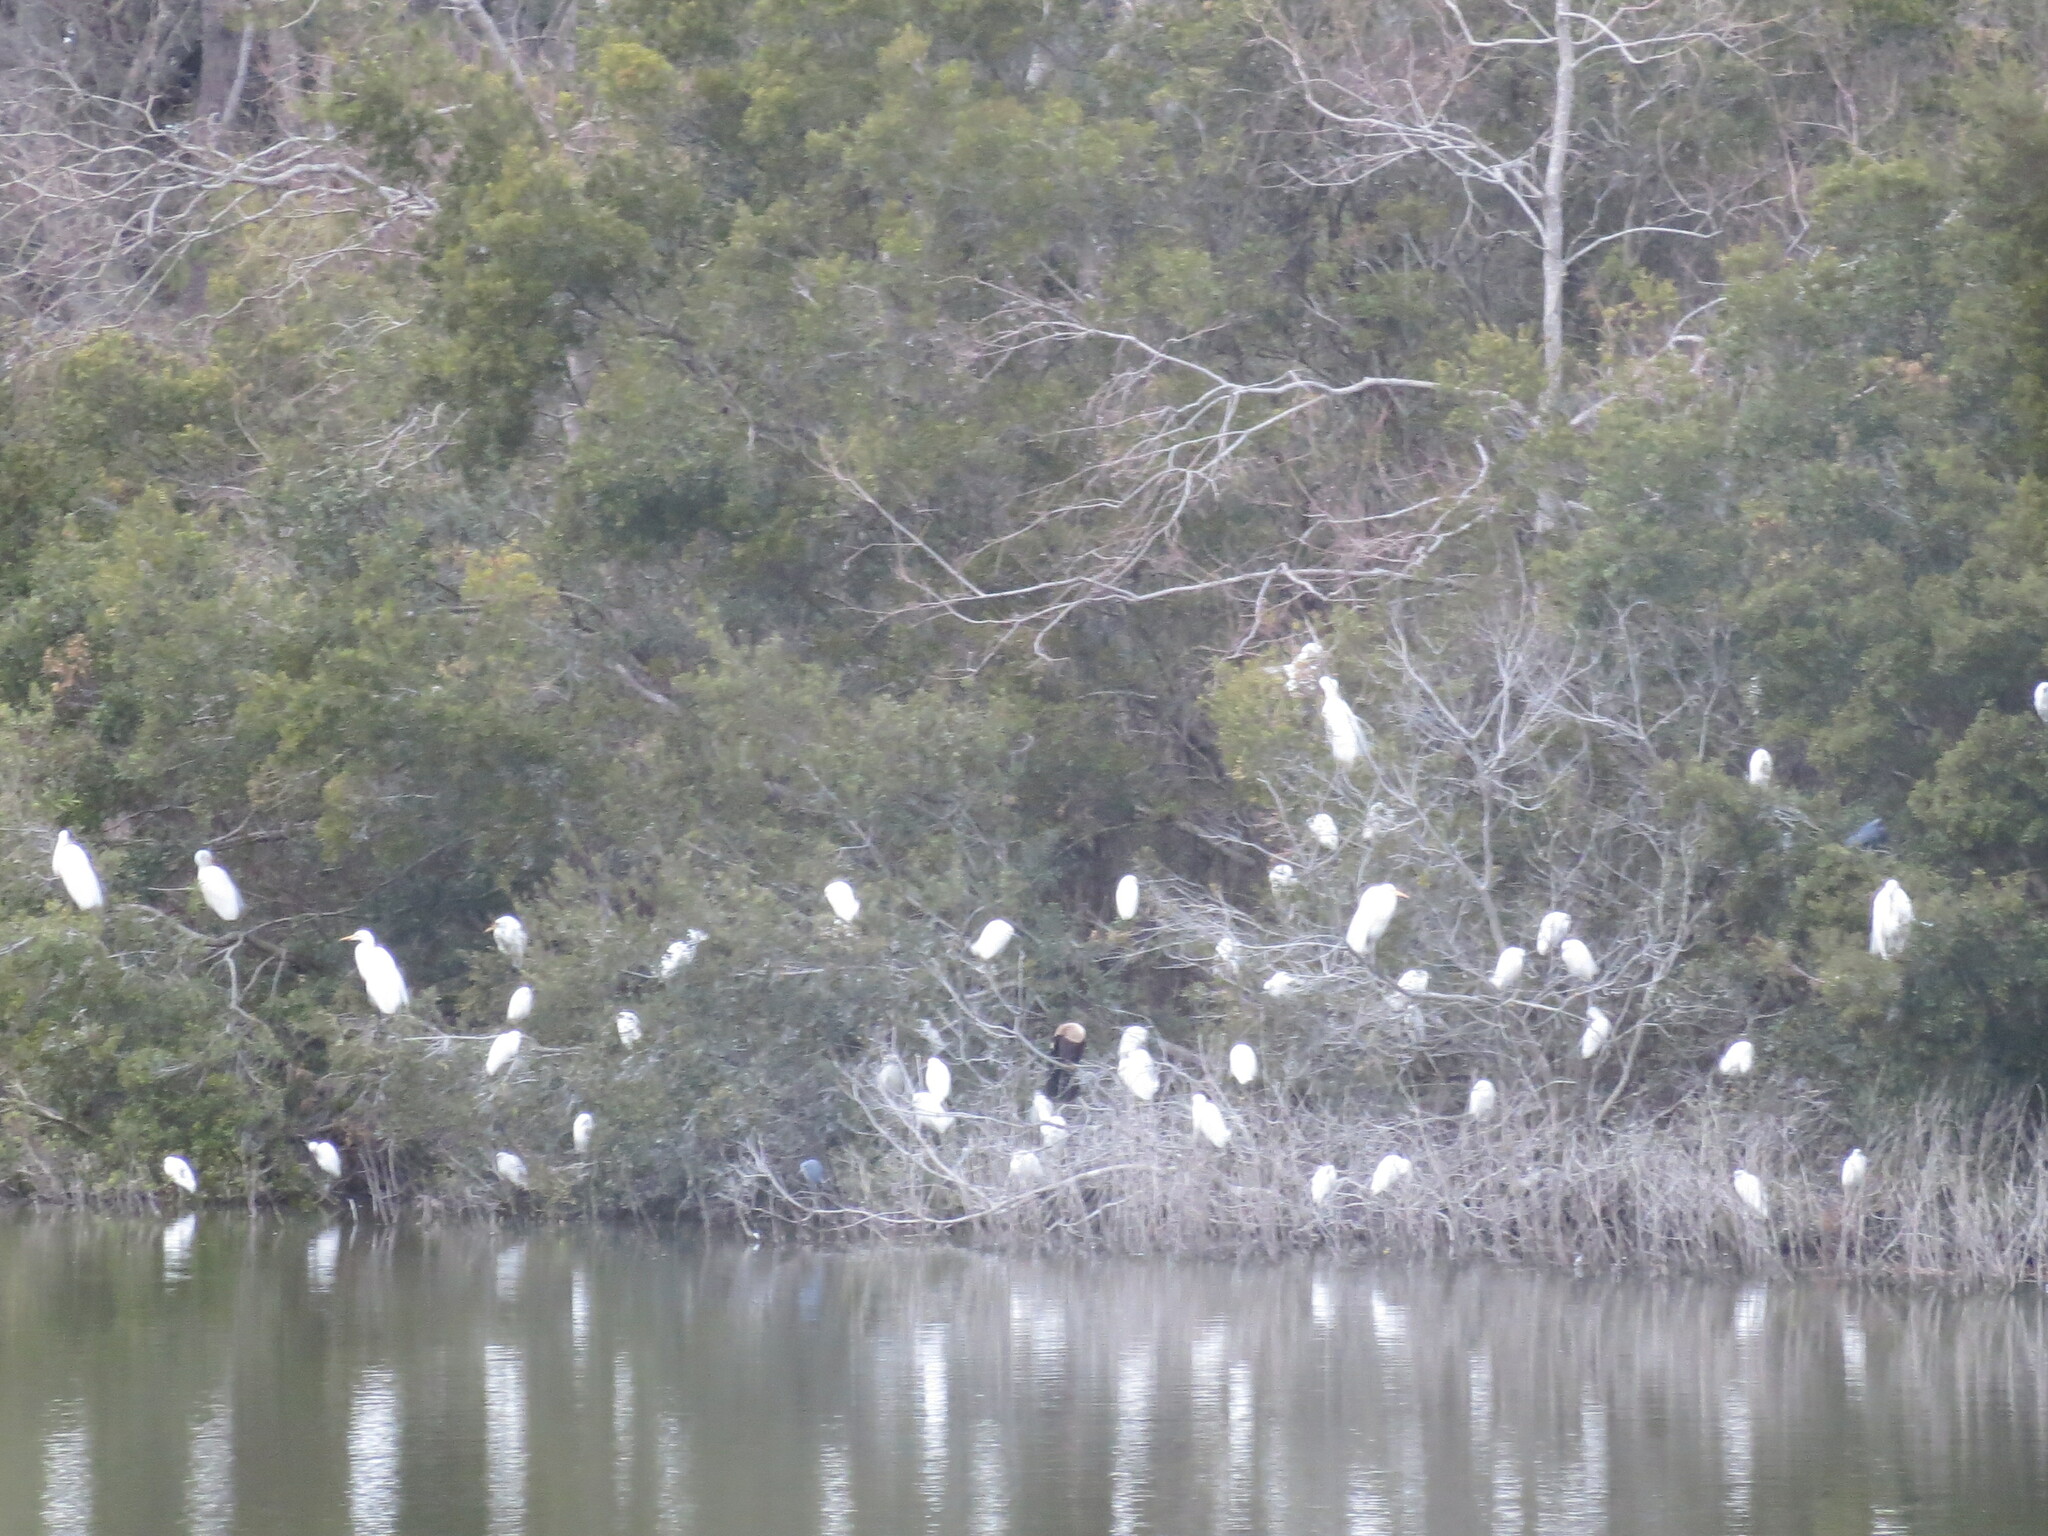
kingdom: Animalia
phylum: Chordata
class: Aves
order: Pelecaniformes
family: Ardeidae
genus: Ardea
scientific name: Ardea alba
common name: Great egret
